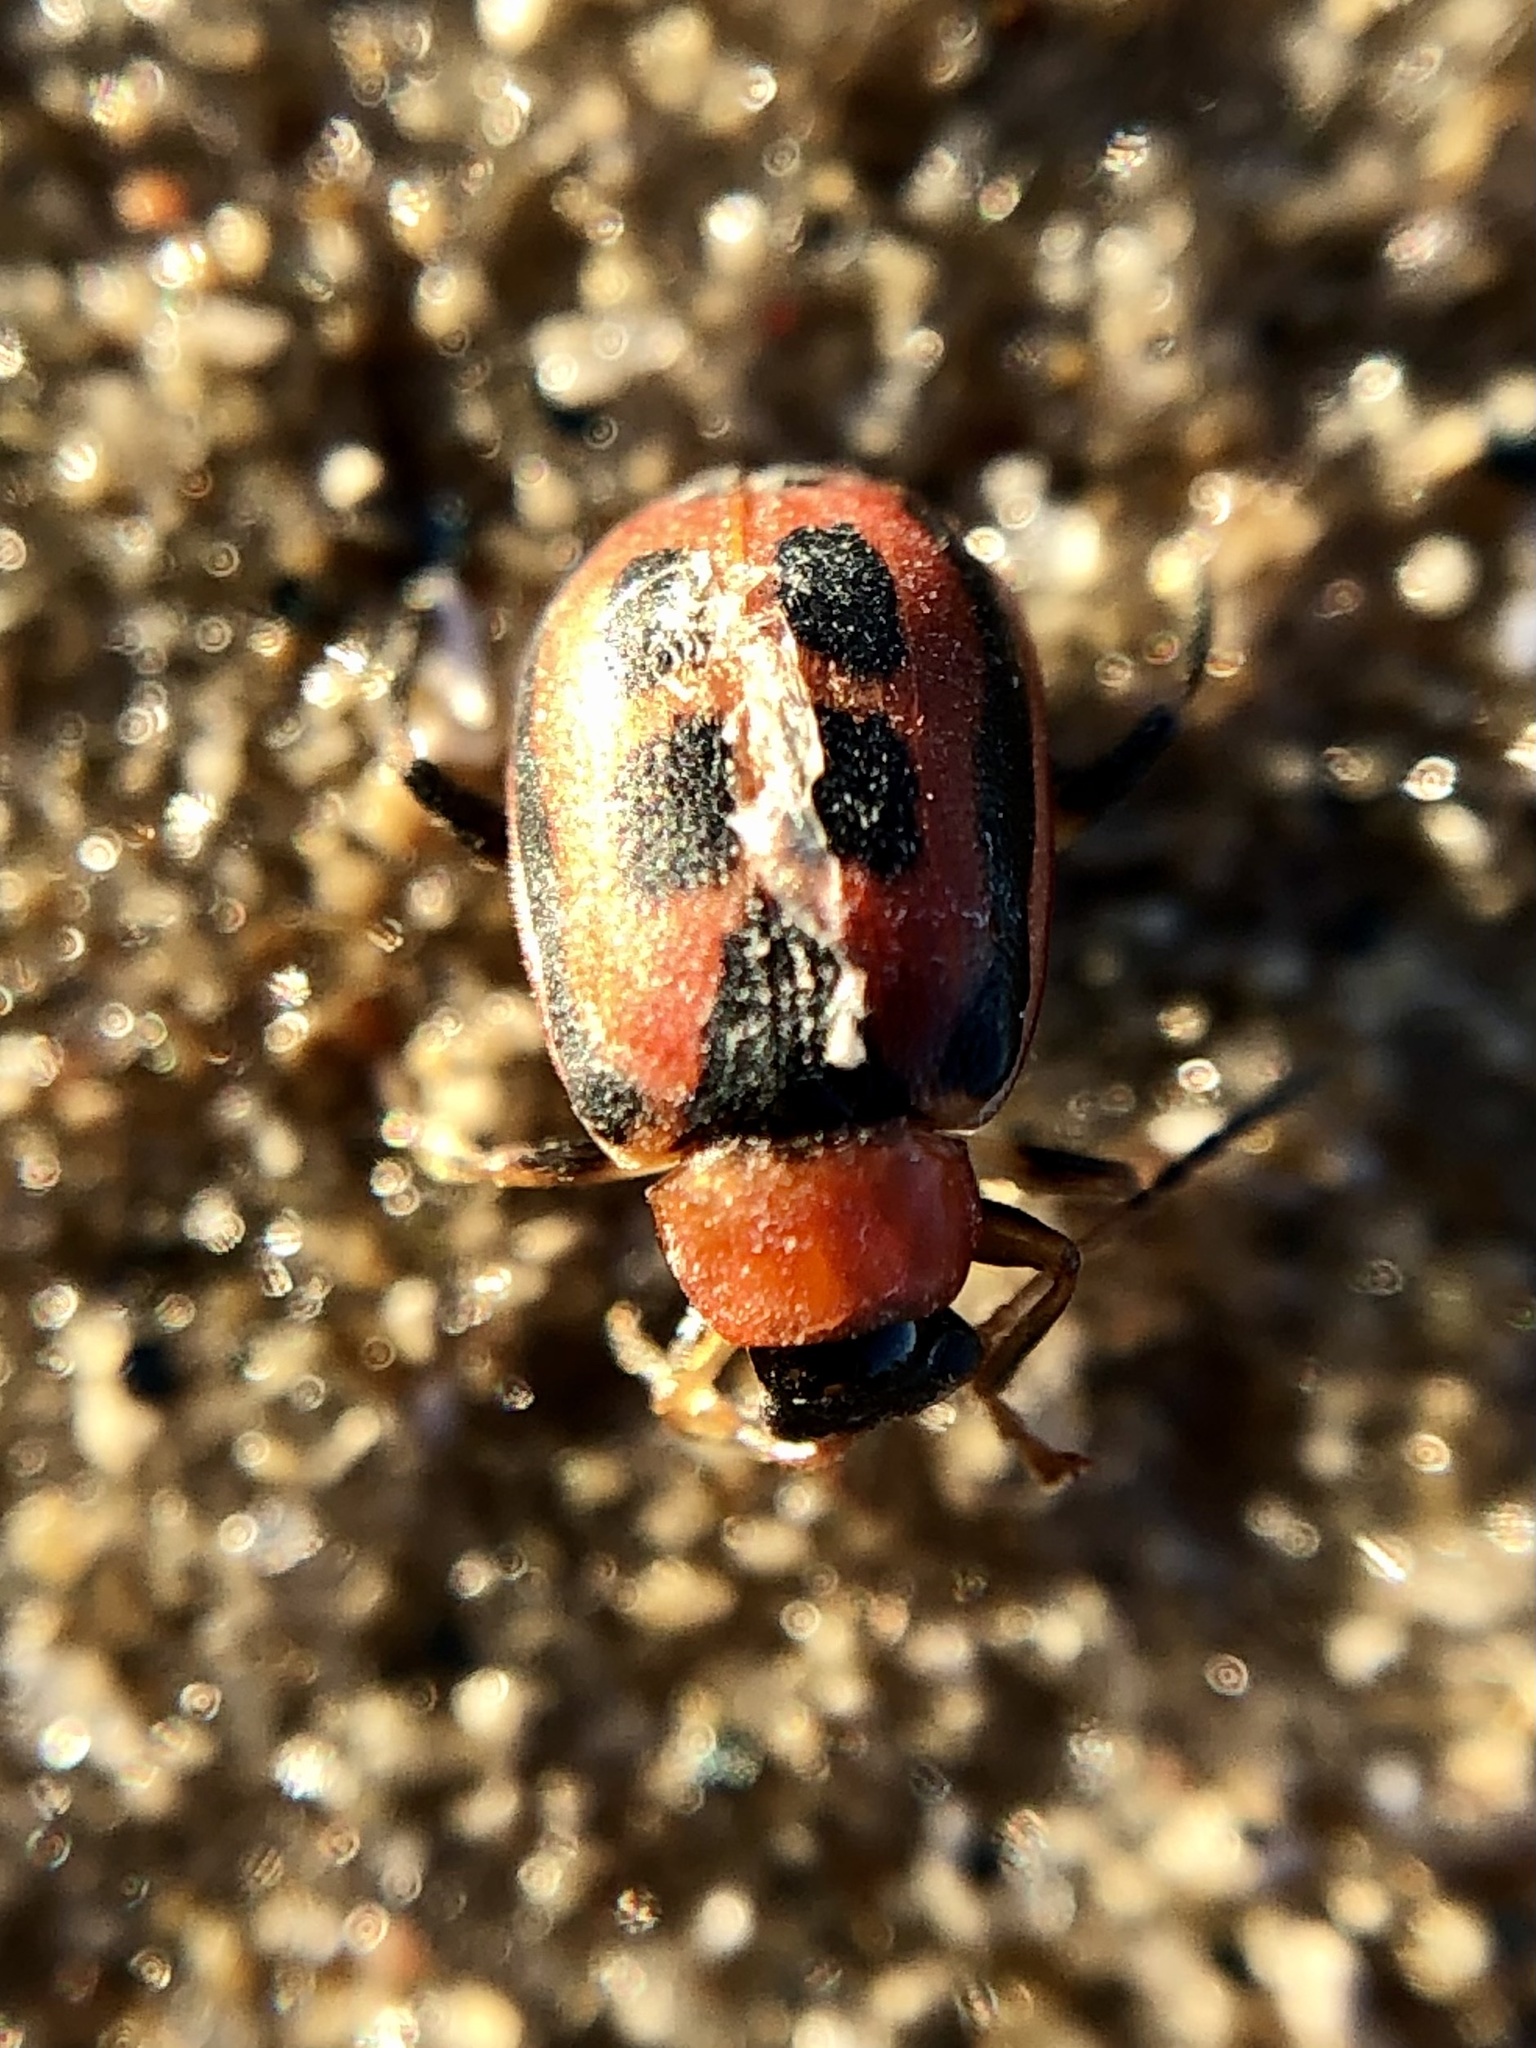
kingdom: Animalia
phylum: Arthropoda
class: Insecta
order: Coleoptera
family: Chrysomelidae
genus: Cerotoma
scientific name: Cerotoma trifurcata
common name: Bean leaf beetle
